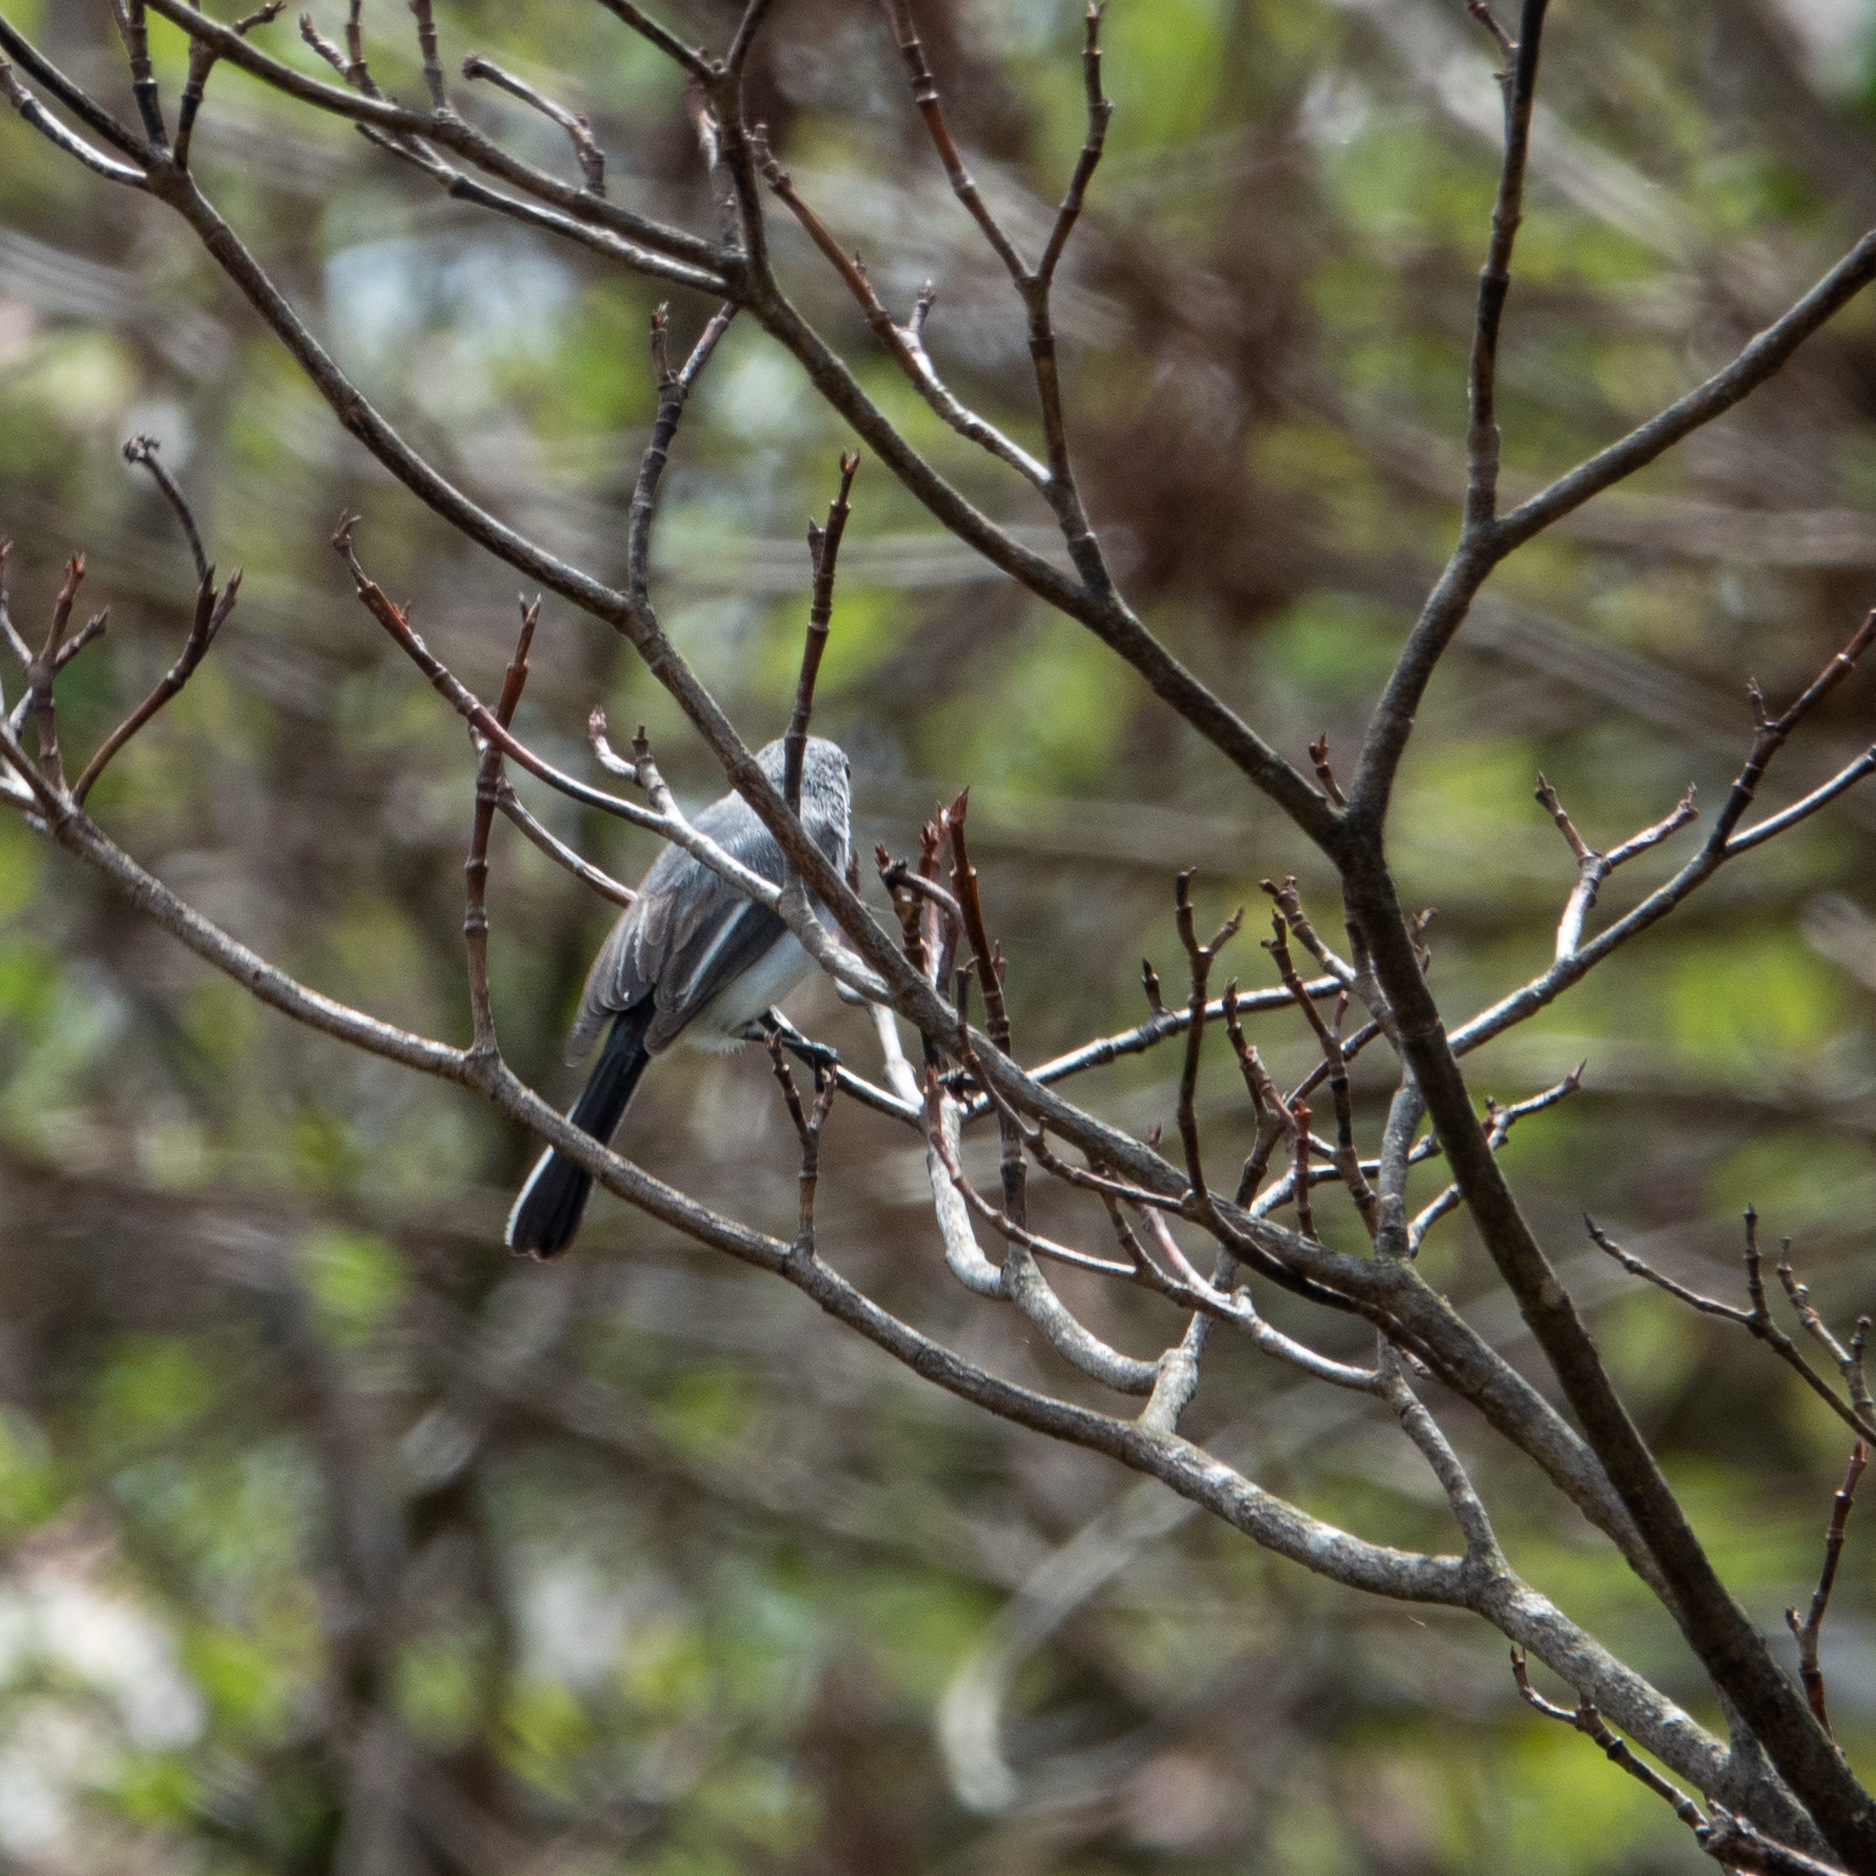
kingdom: Animalia
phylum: Chordata
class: Aves
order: Passeriformes
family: Polioptilidae
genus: Polioptila
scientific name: Polioptila caerulea
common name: Blue-gray gnatcatcher
